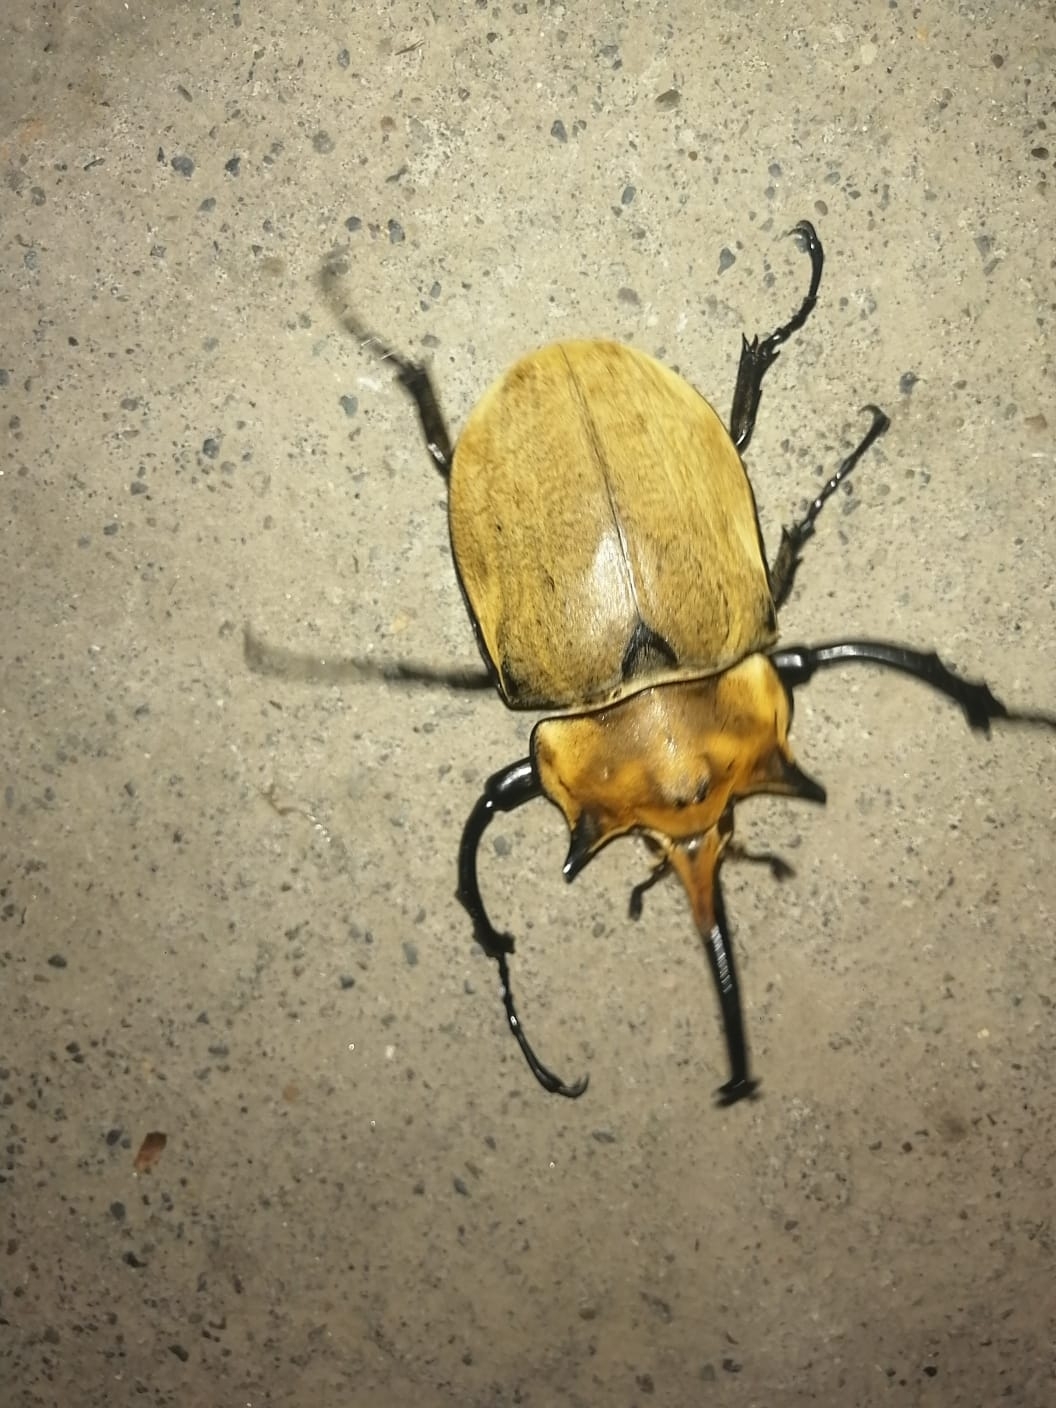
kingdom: Animalia
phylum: Arthropoda
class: Insecta
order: Coleoptera
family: Scarabaeidae
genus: Megasoma
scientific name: Megasoma elephas
